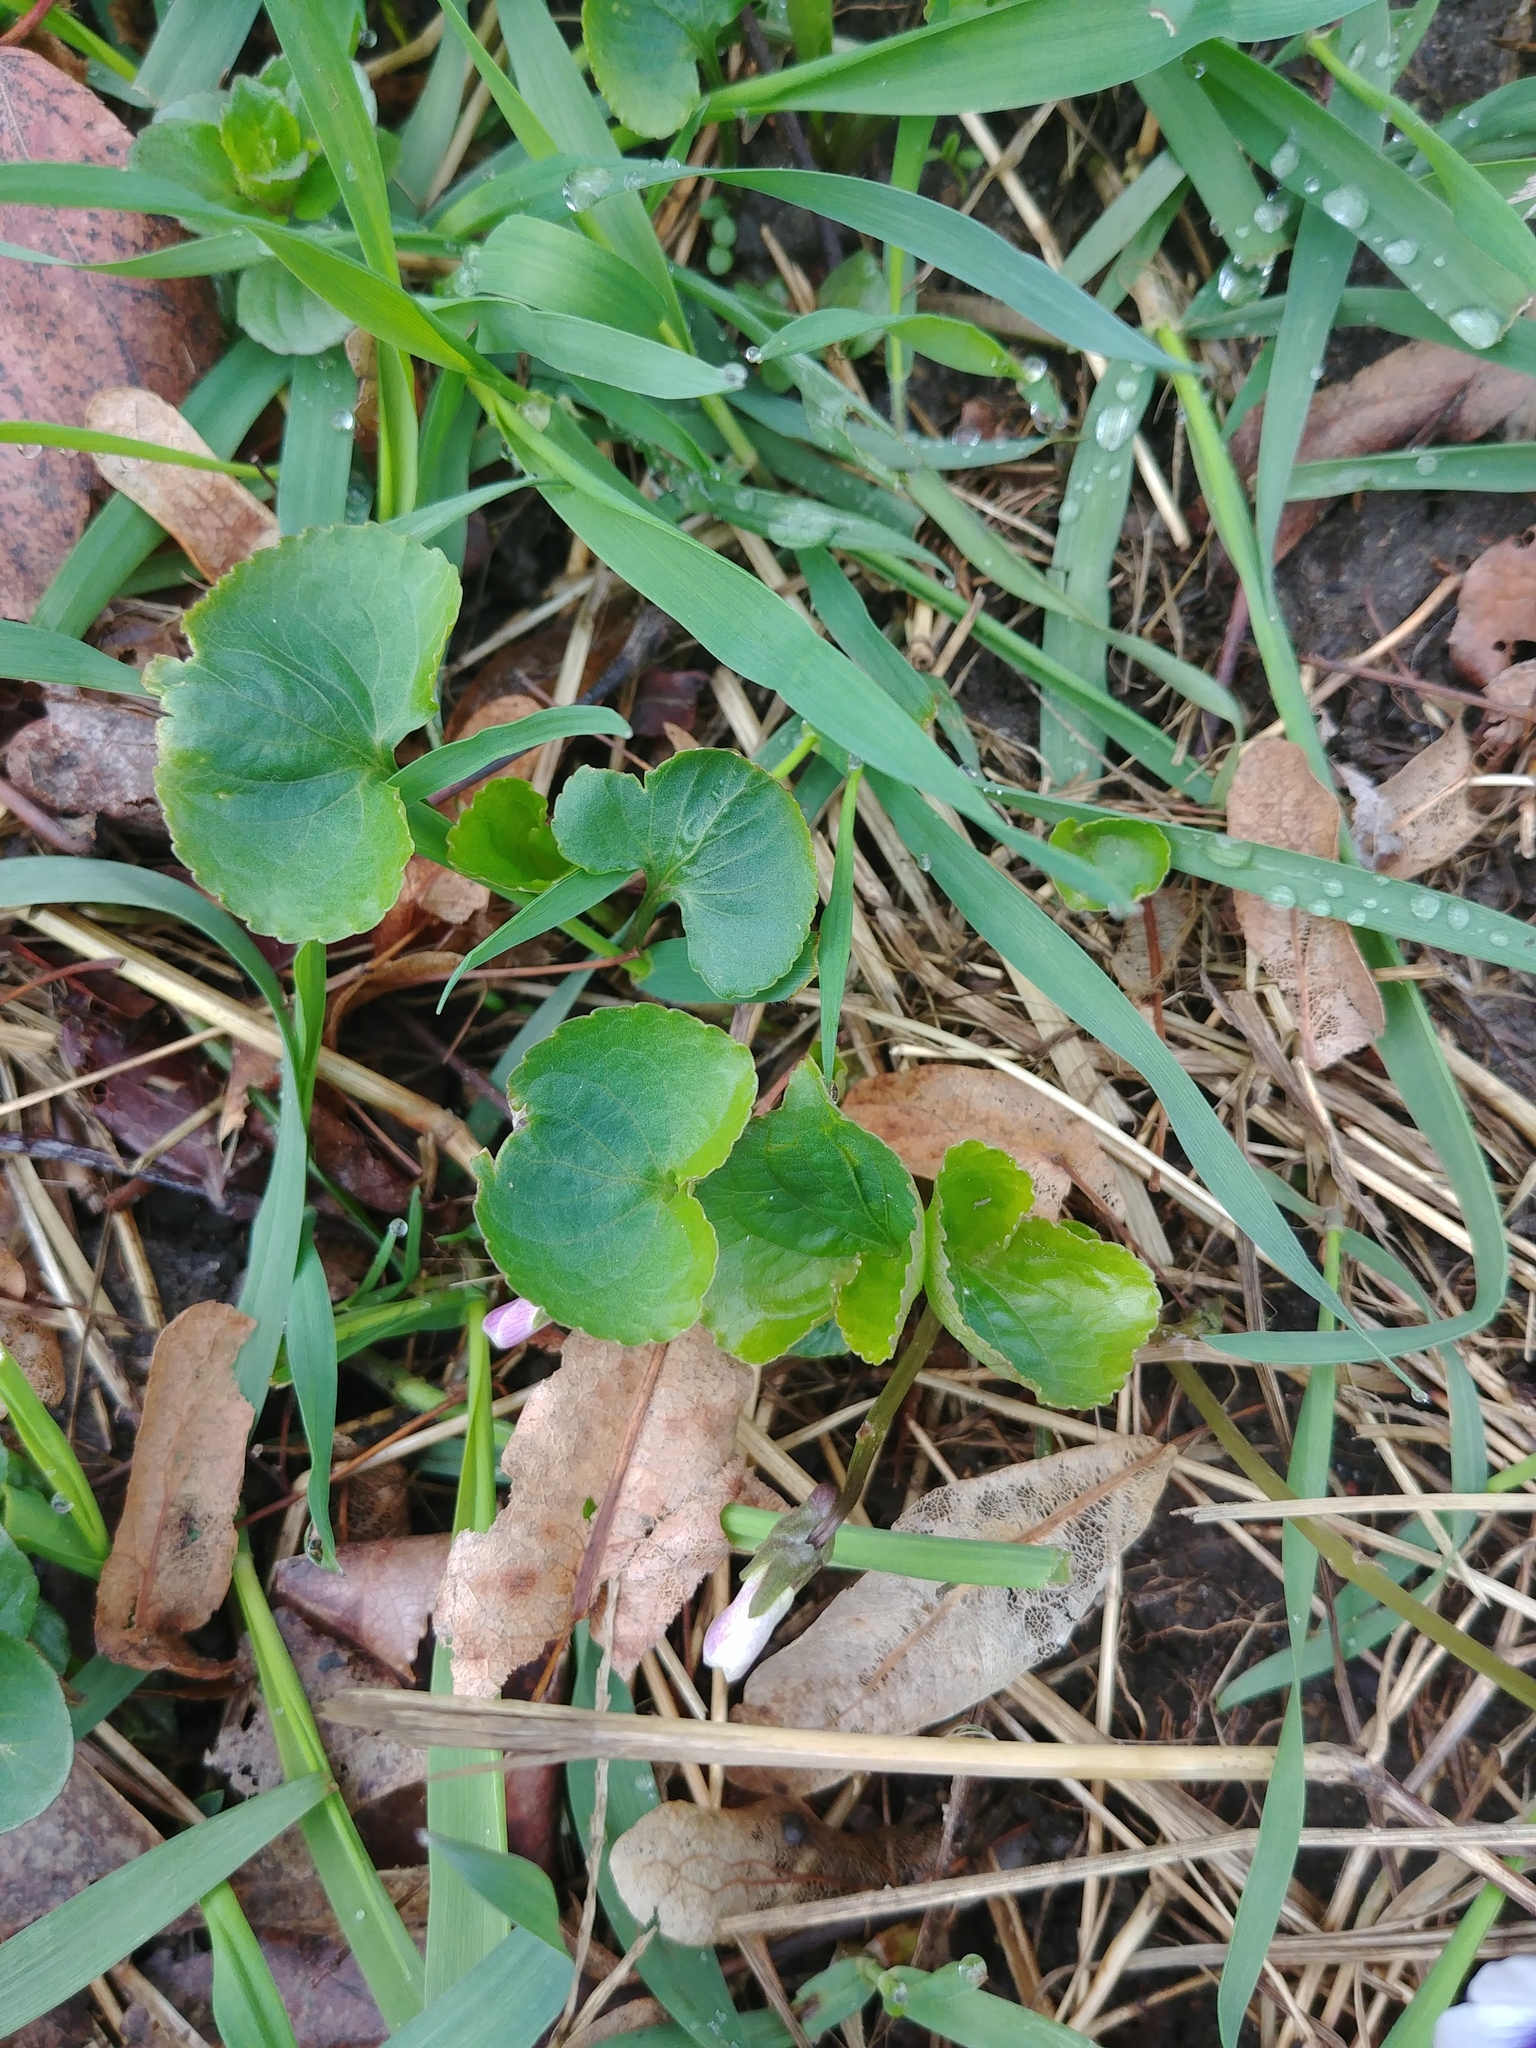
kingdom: Plantae
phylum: Tracheophyta
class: Magnoliopsida
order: Malpighiales
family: Violaceae
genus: Viola
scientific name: Viola sororia
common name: Dooryard violet
